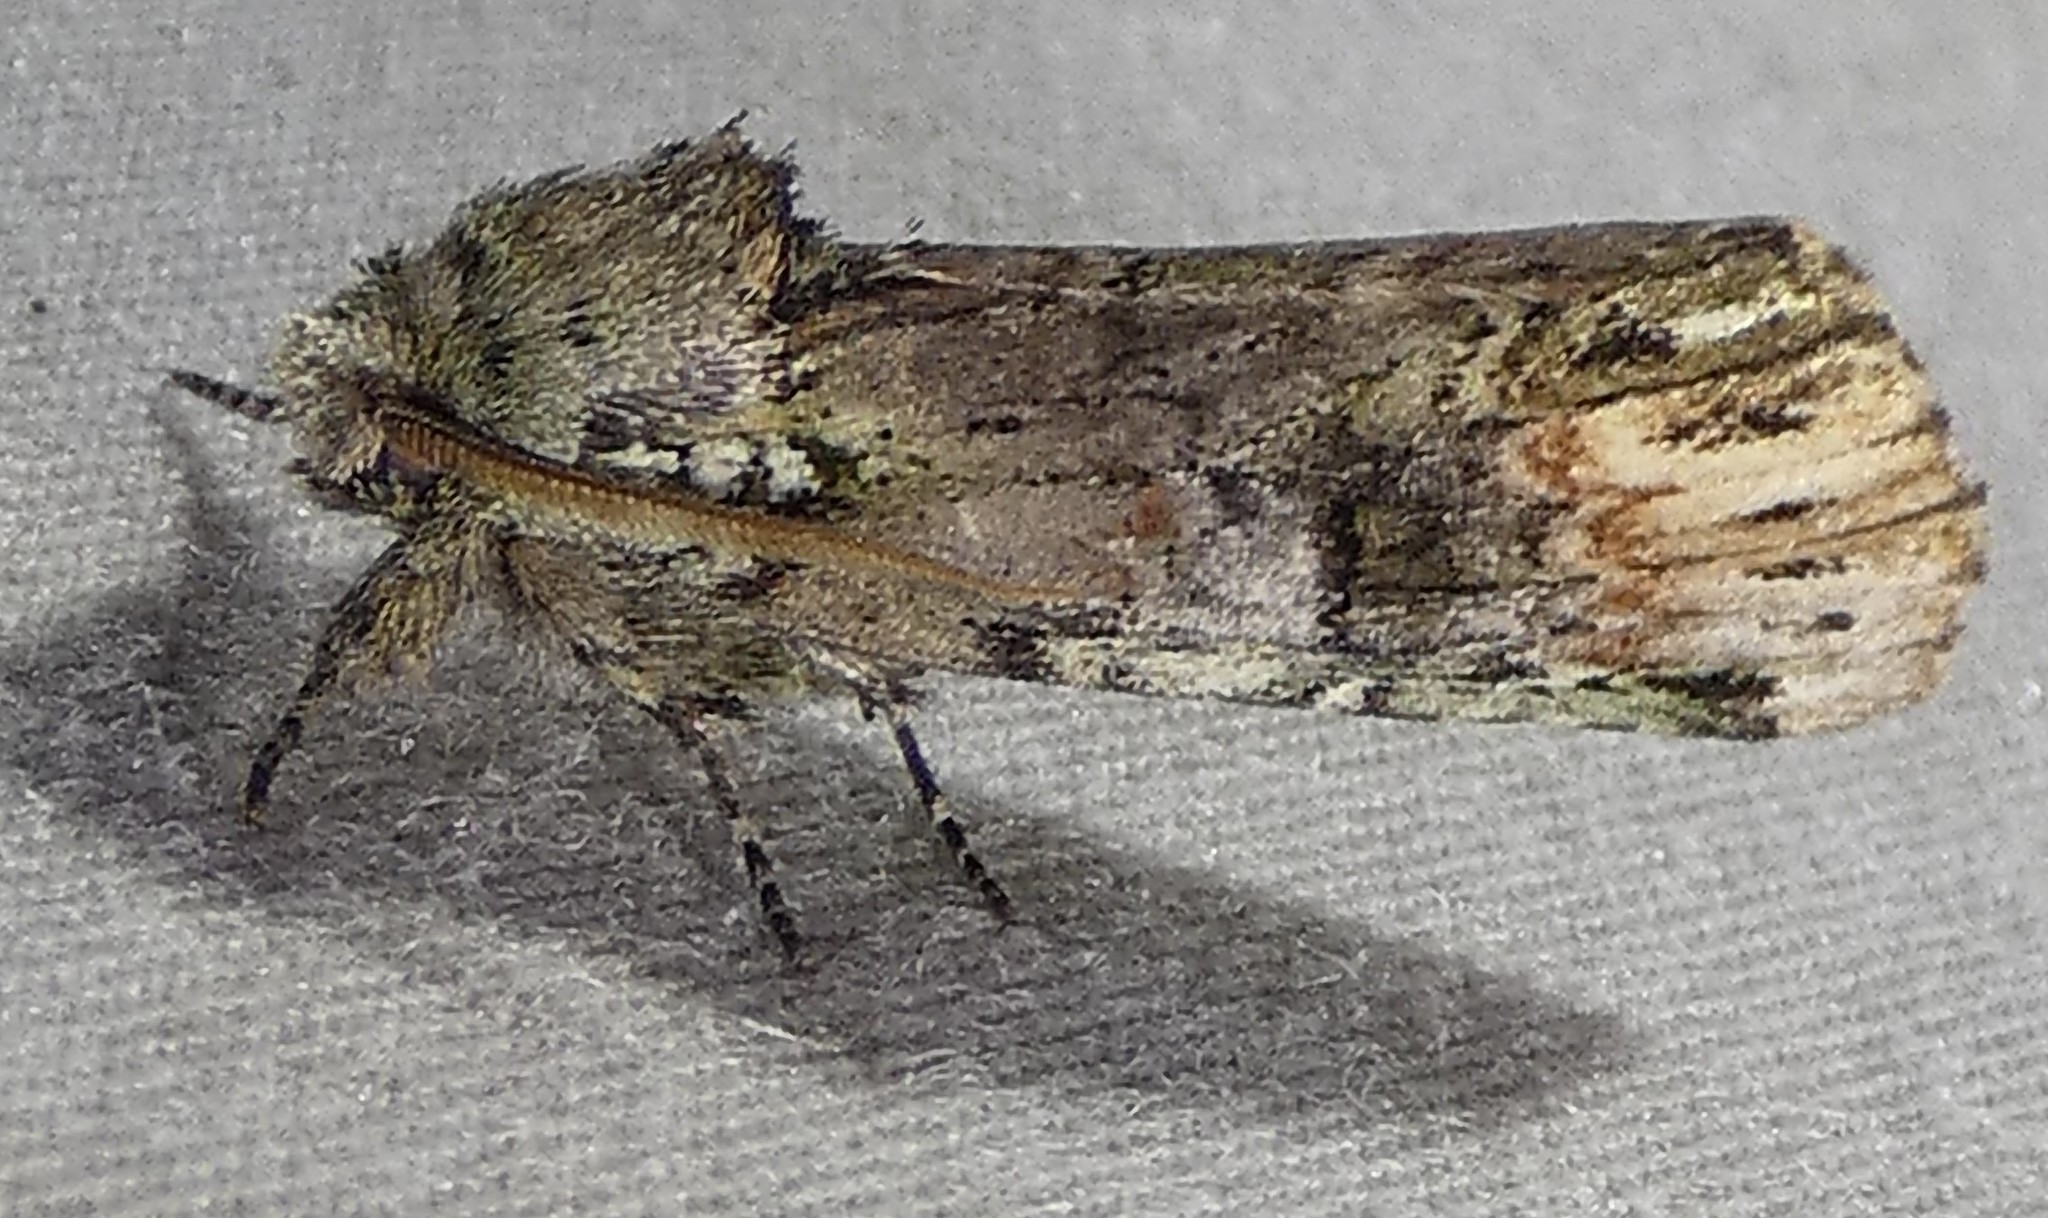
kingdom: Animalia
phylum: Arthropoda
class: Insecta
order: Lepidoptera
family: Notodontidae
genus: Schizura
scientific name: Schizura
